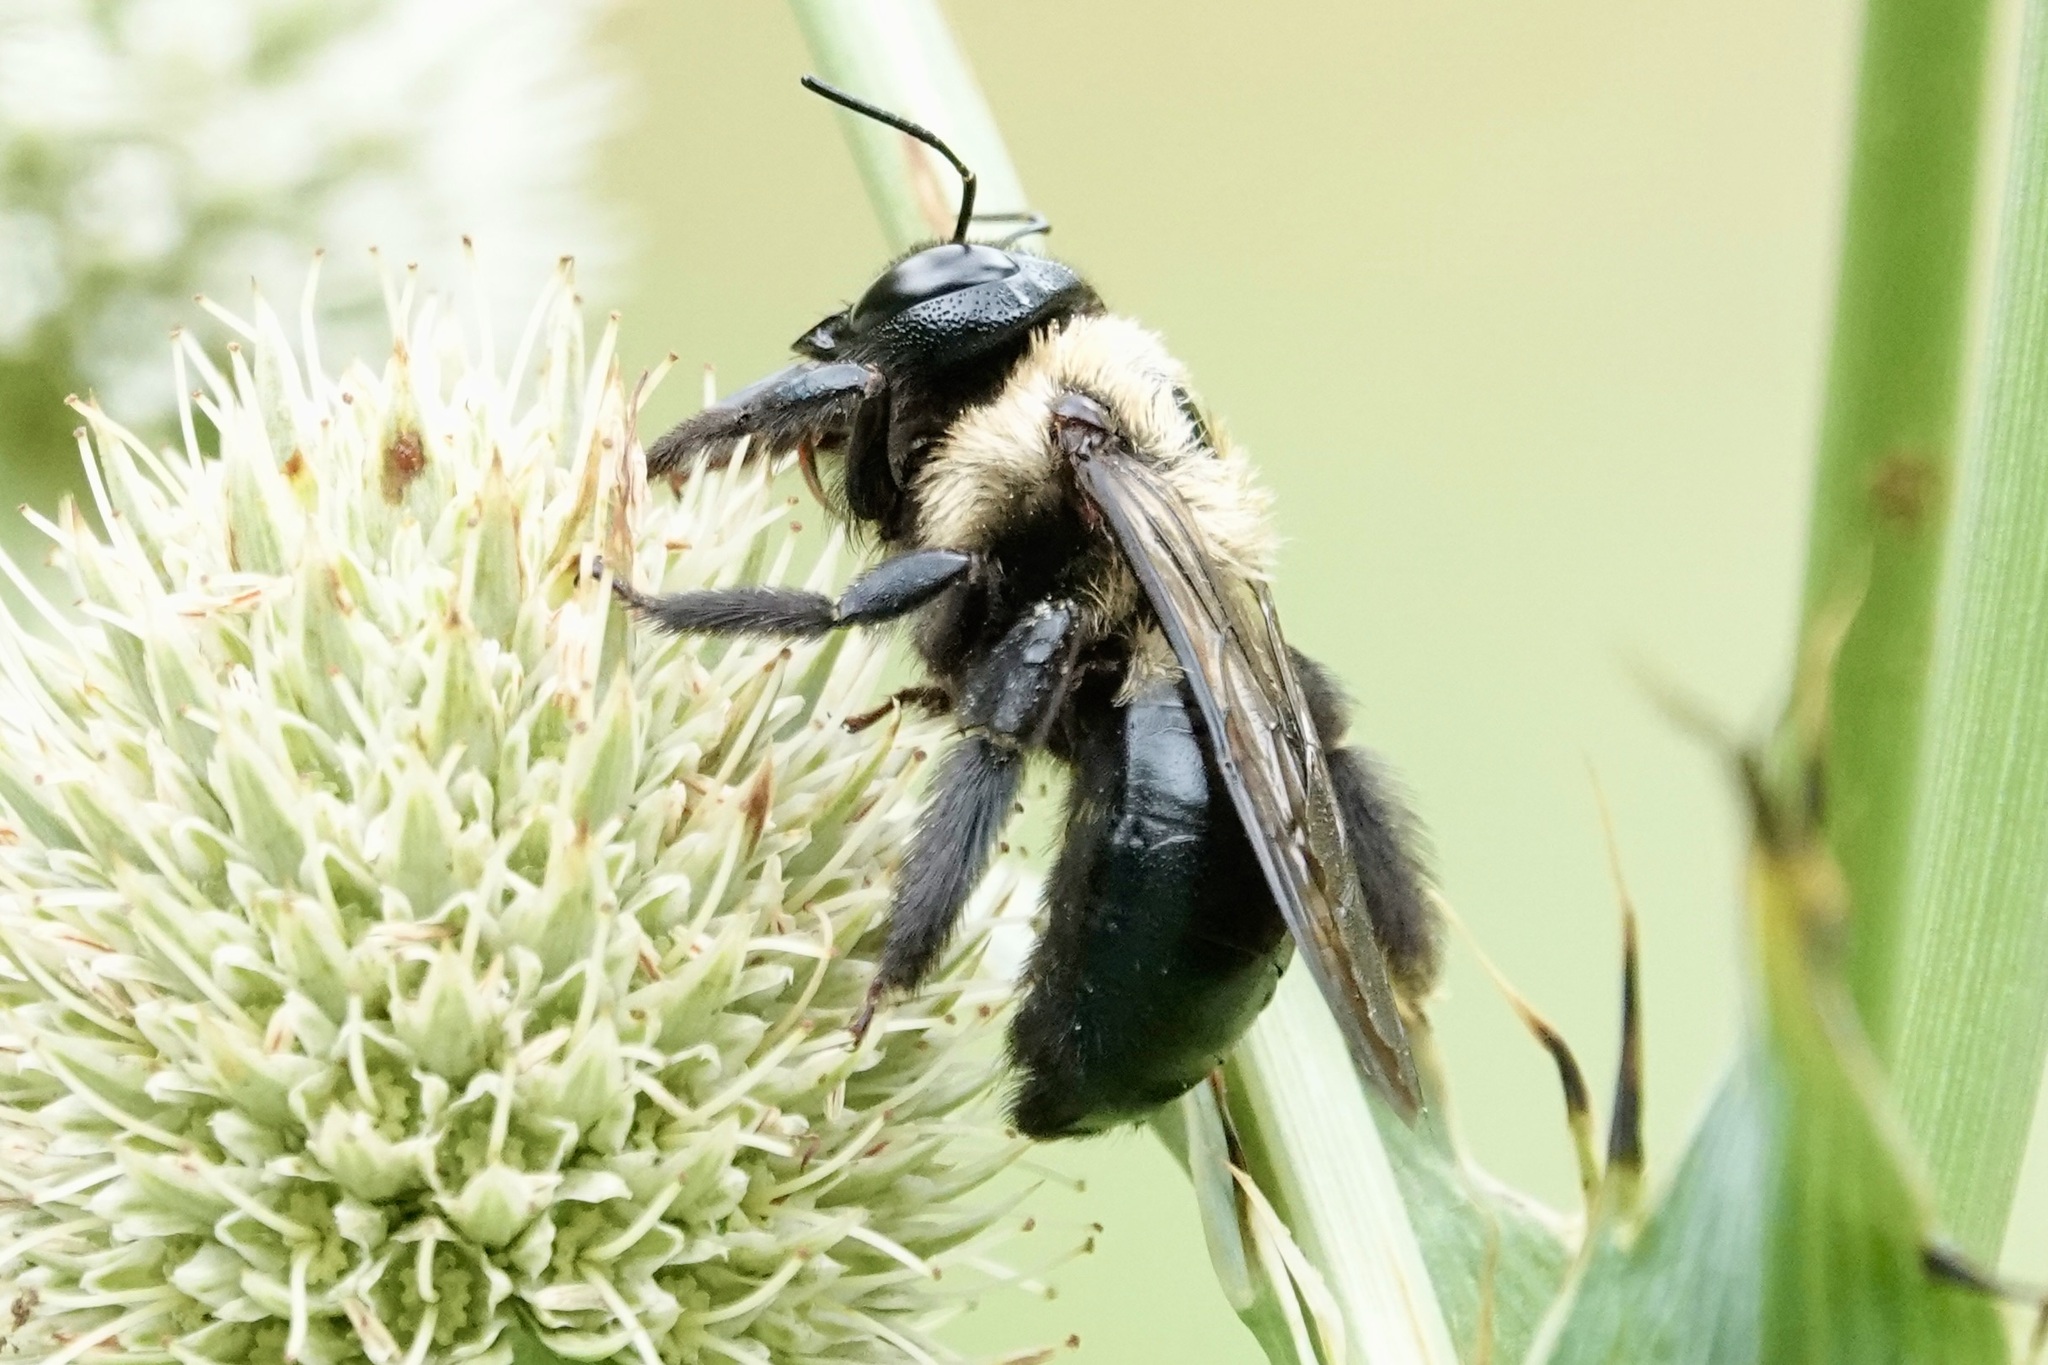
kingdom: Animalia
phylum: Arthropoda
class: Insecta
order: Hymenoptera
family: Apidae
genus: Xylocopa
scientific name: Xylocopa virginica
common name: Carpenter bee
